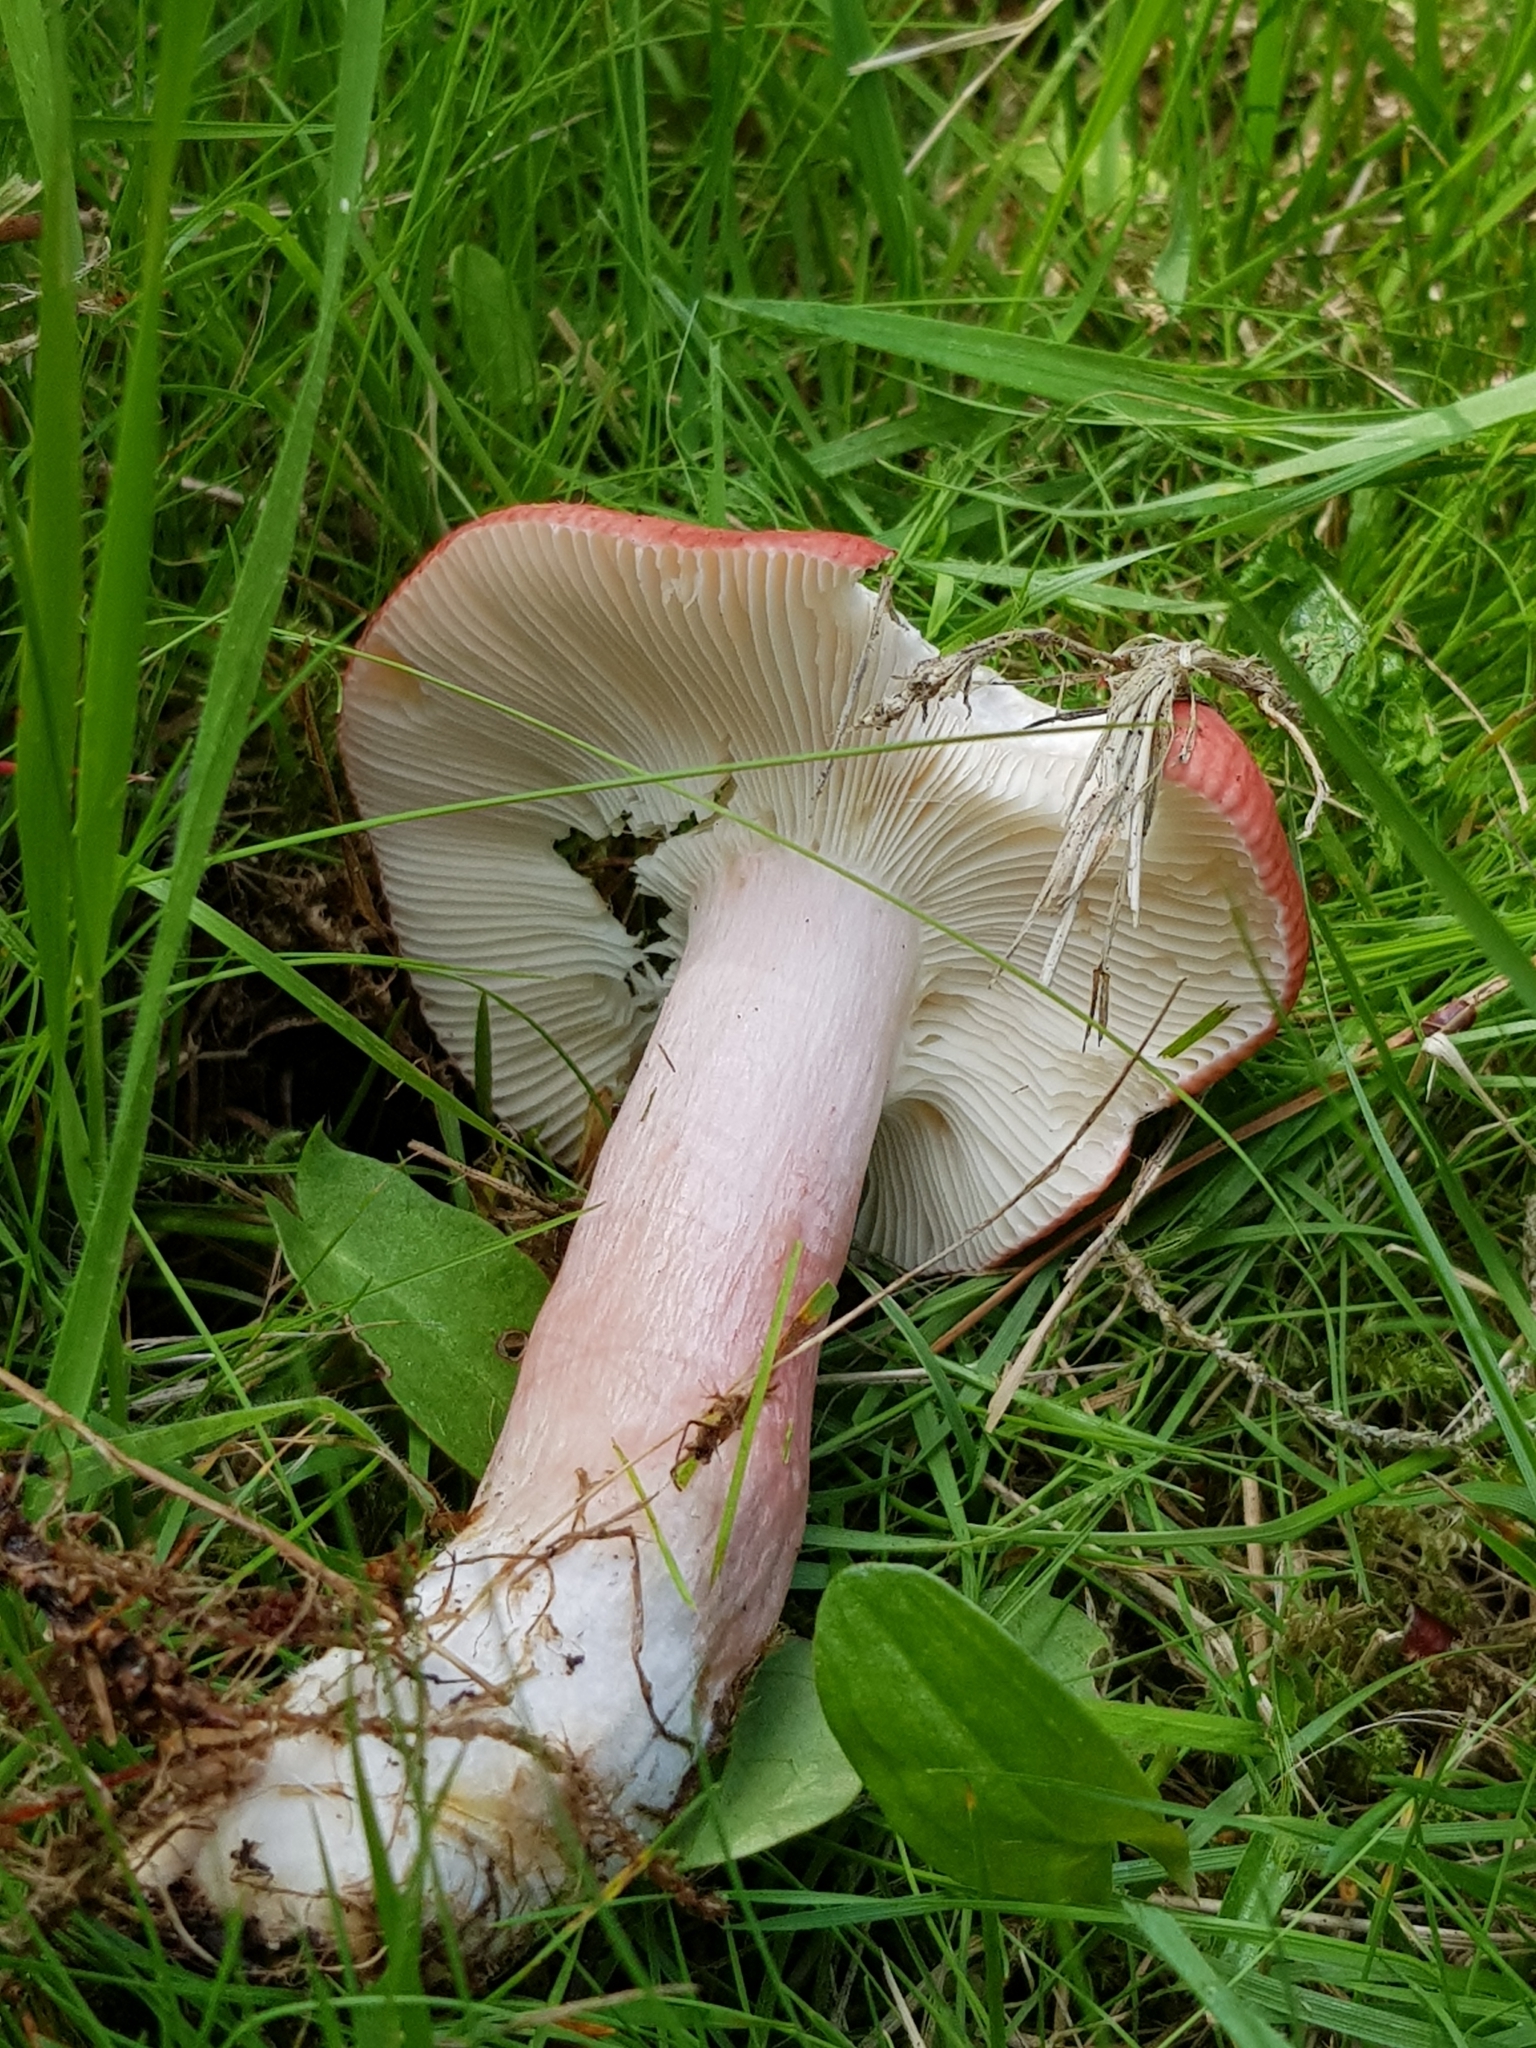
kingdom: Fungi
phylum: Basidiomycota
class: Agaricomycetes
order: Russulales
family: Russulaceae
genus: Russula
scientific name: Russula sanguinea
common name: Bloody brittlegill
